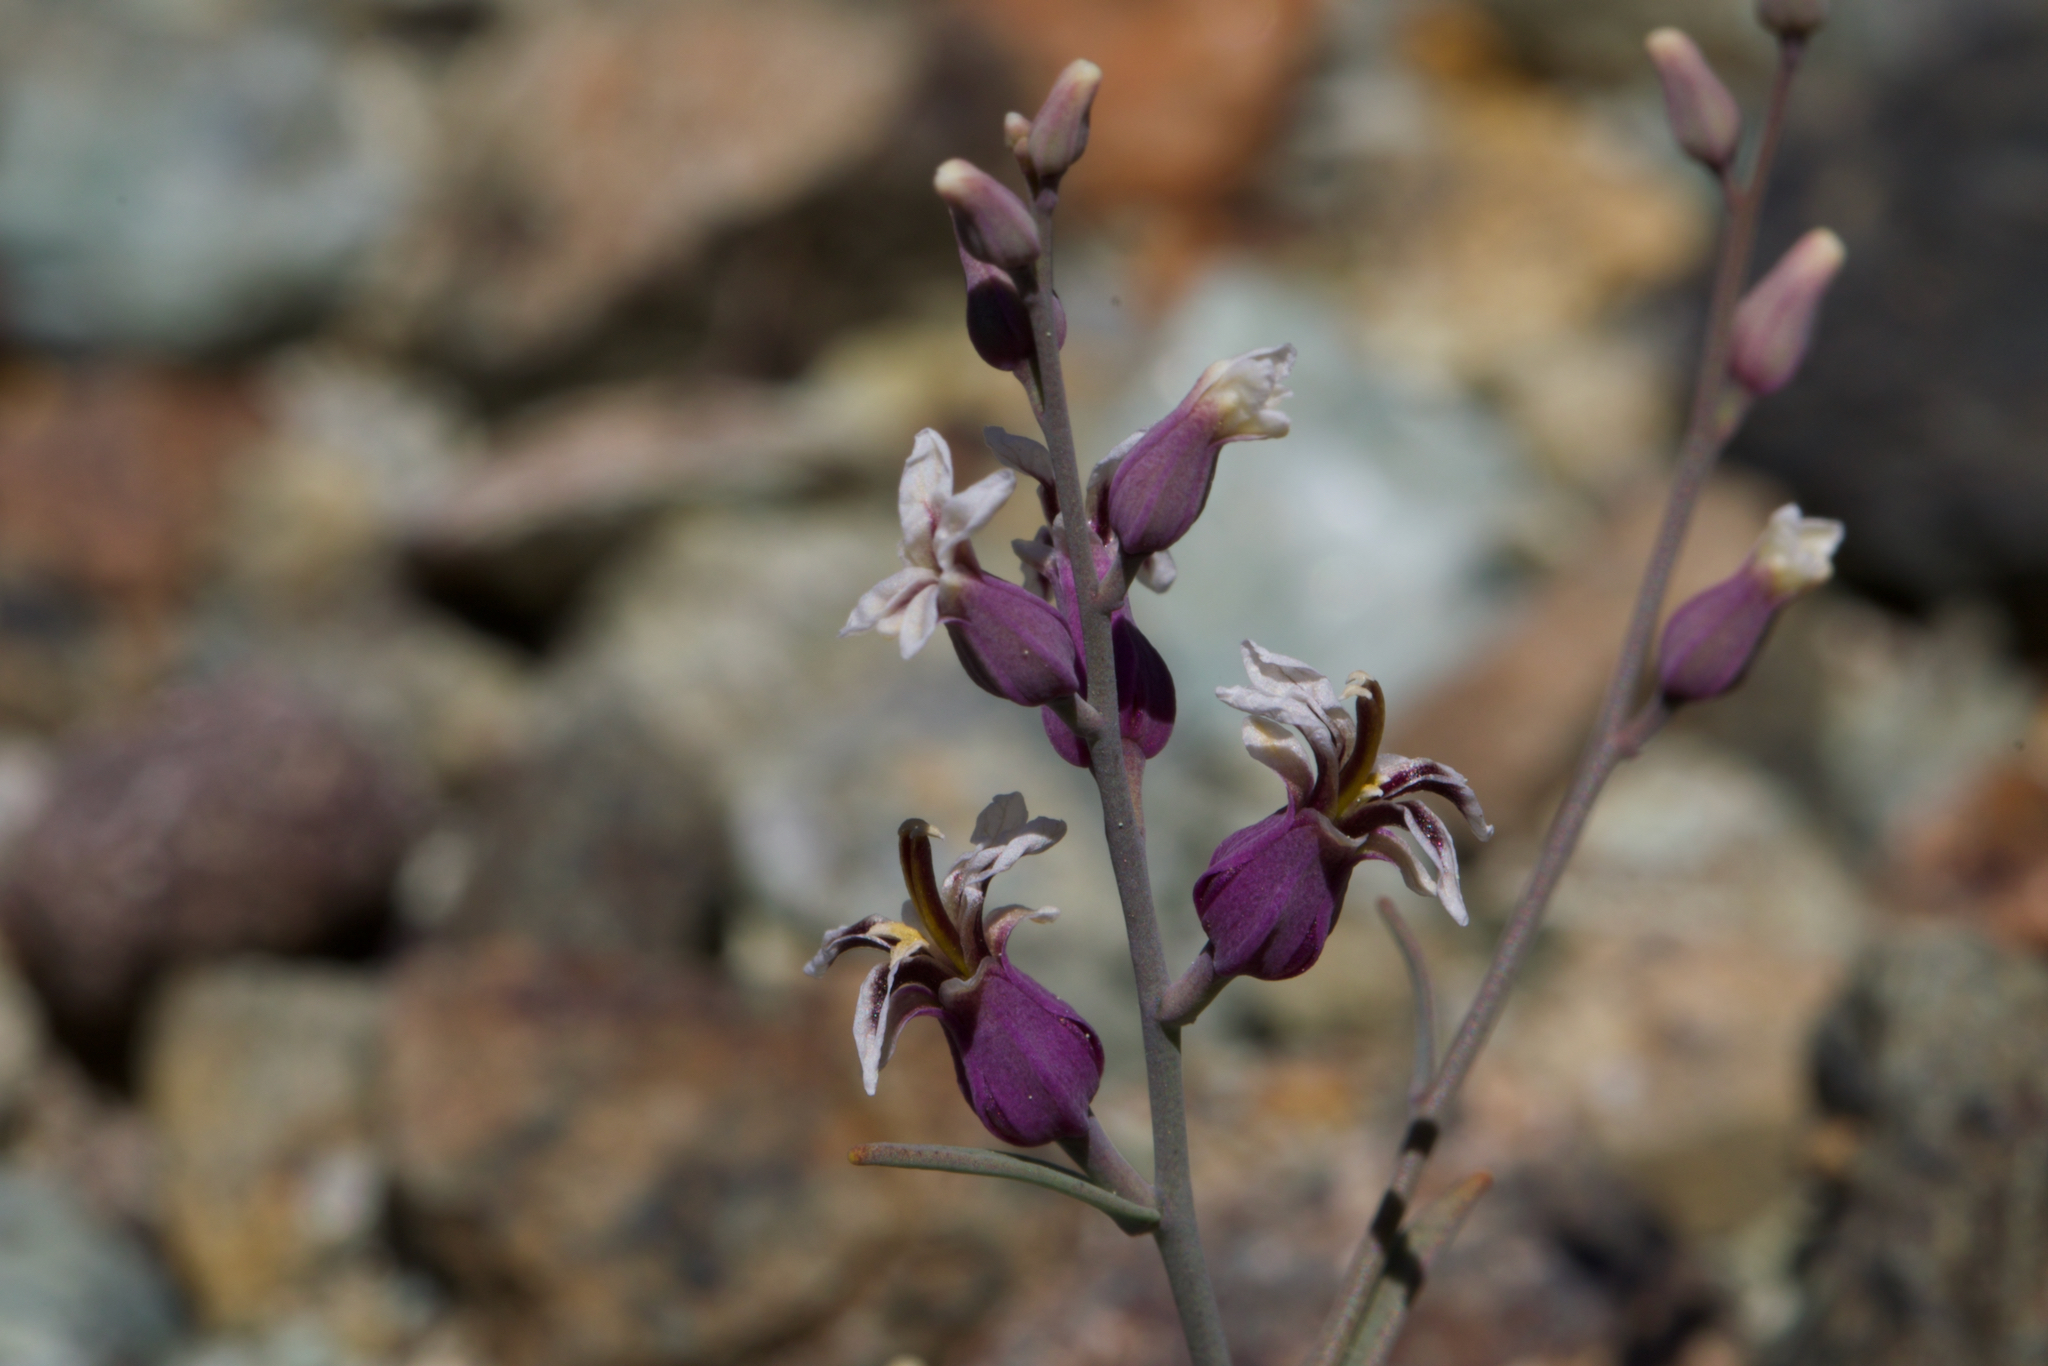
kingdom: Plantae
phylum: Tracheophyta
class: Magnoliopsida
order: Brassicales
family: Brassicaceae
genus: Streptanthus
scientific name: Streptanthus batrachopus
